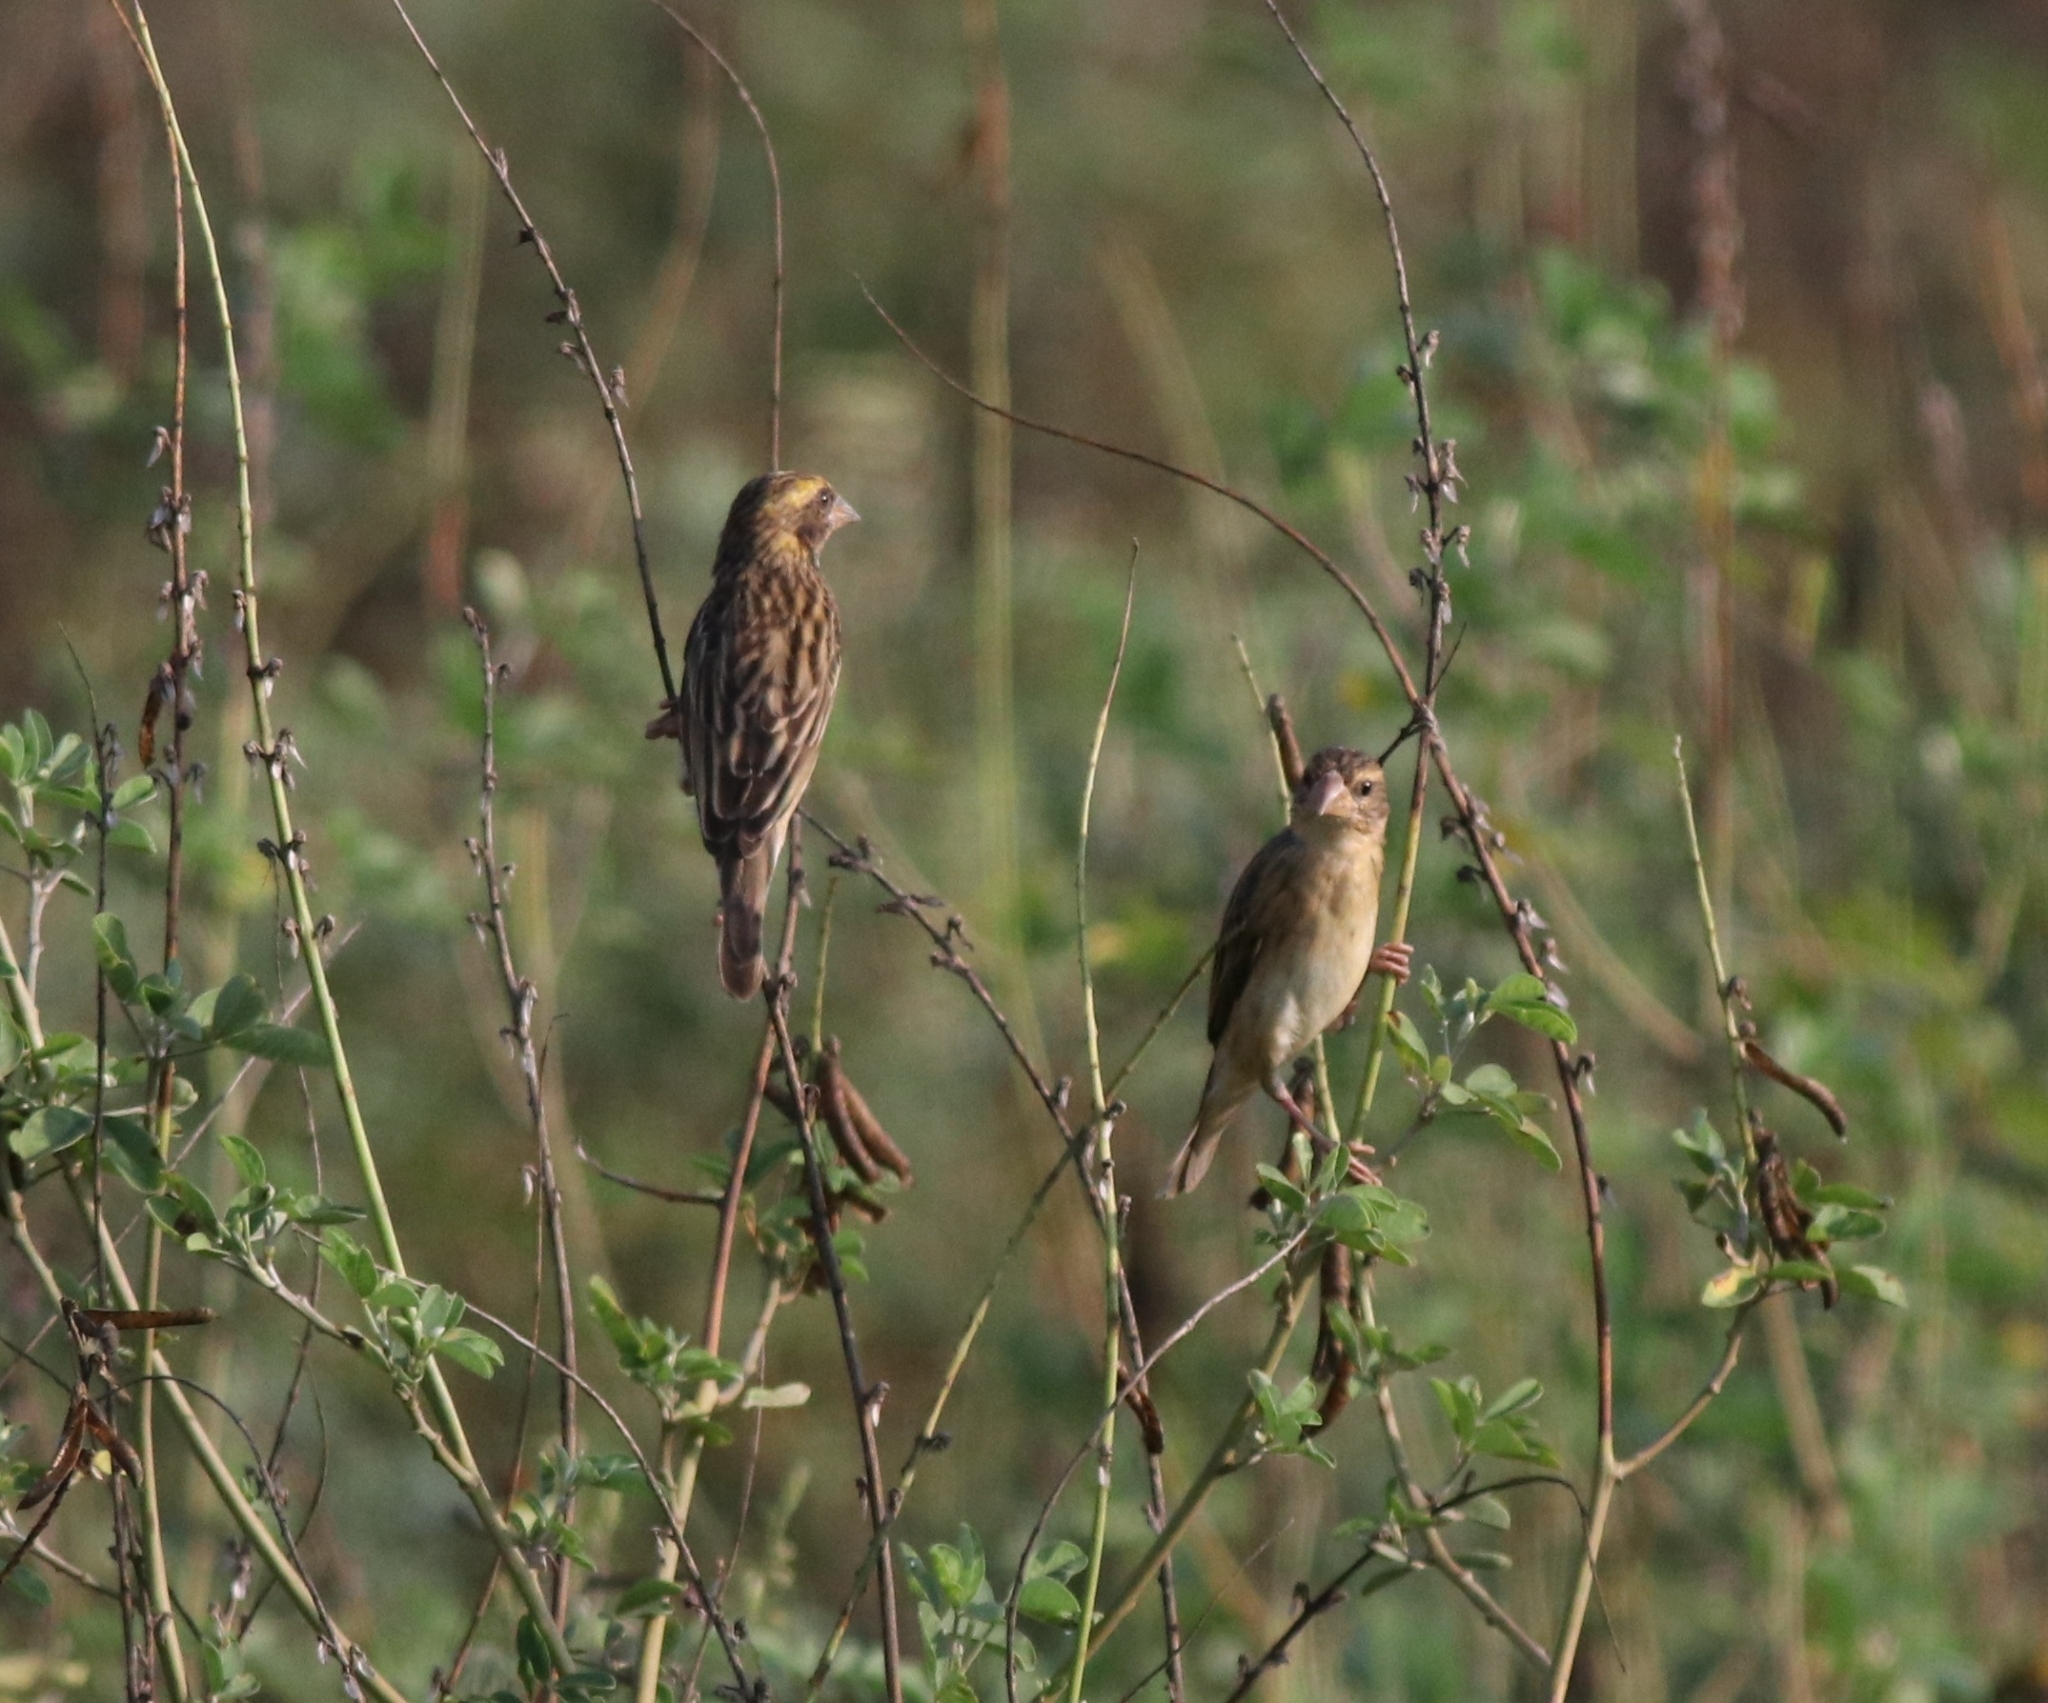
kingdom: Animalia
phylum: Chordata
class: Aves
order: Passeriformes
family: Ploceidae
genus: Ploceus
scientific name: Ploceus philippinus
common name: Baya weaver
